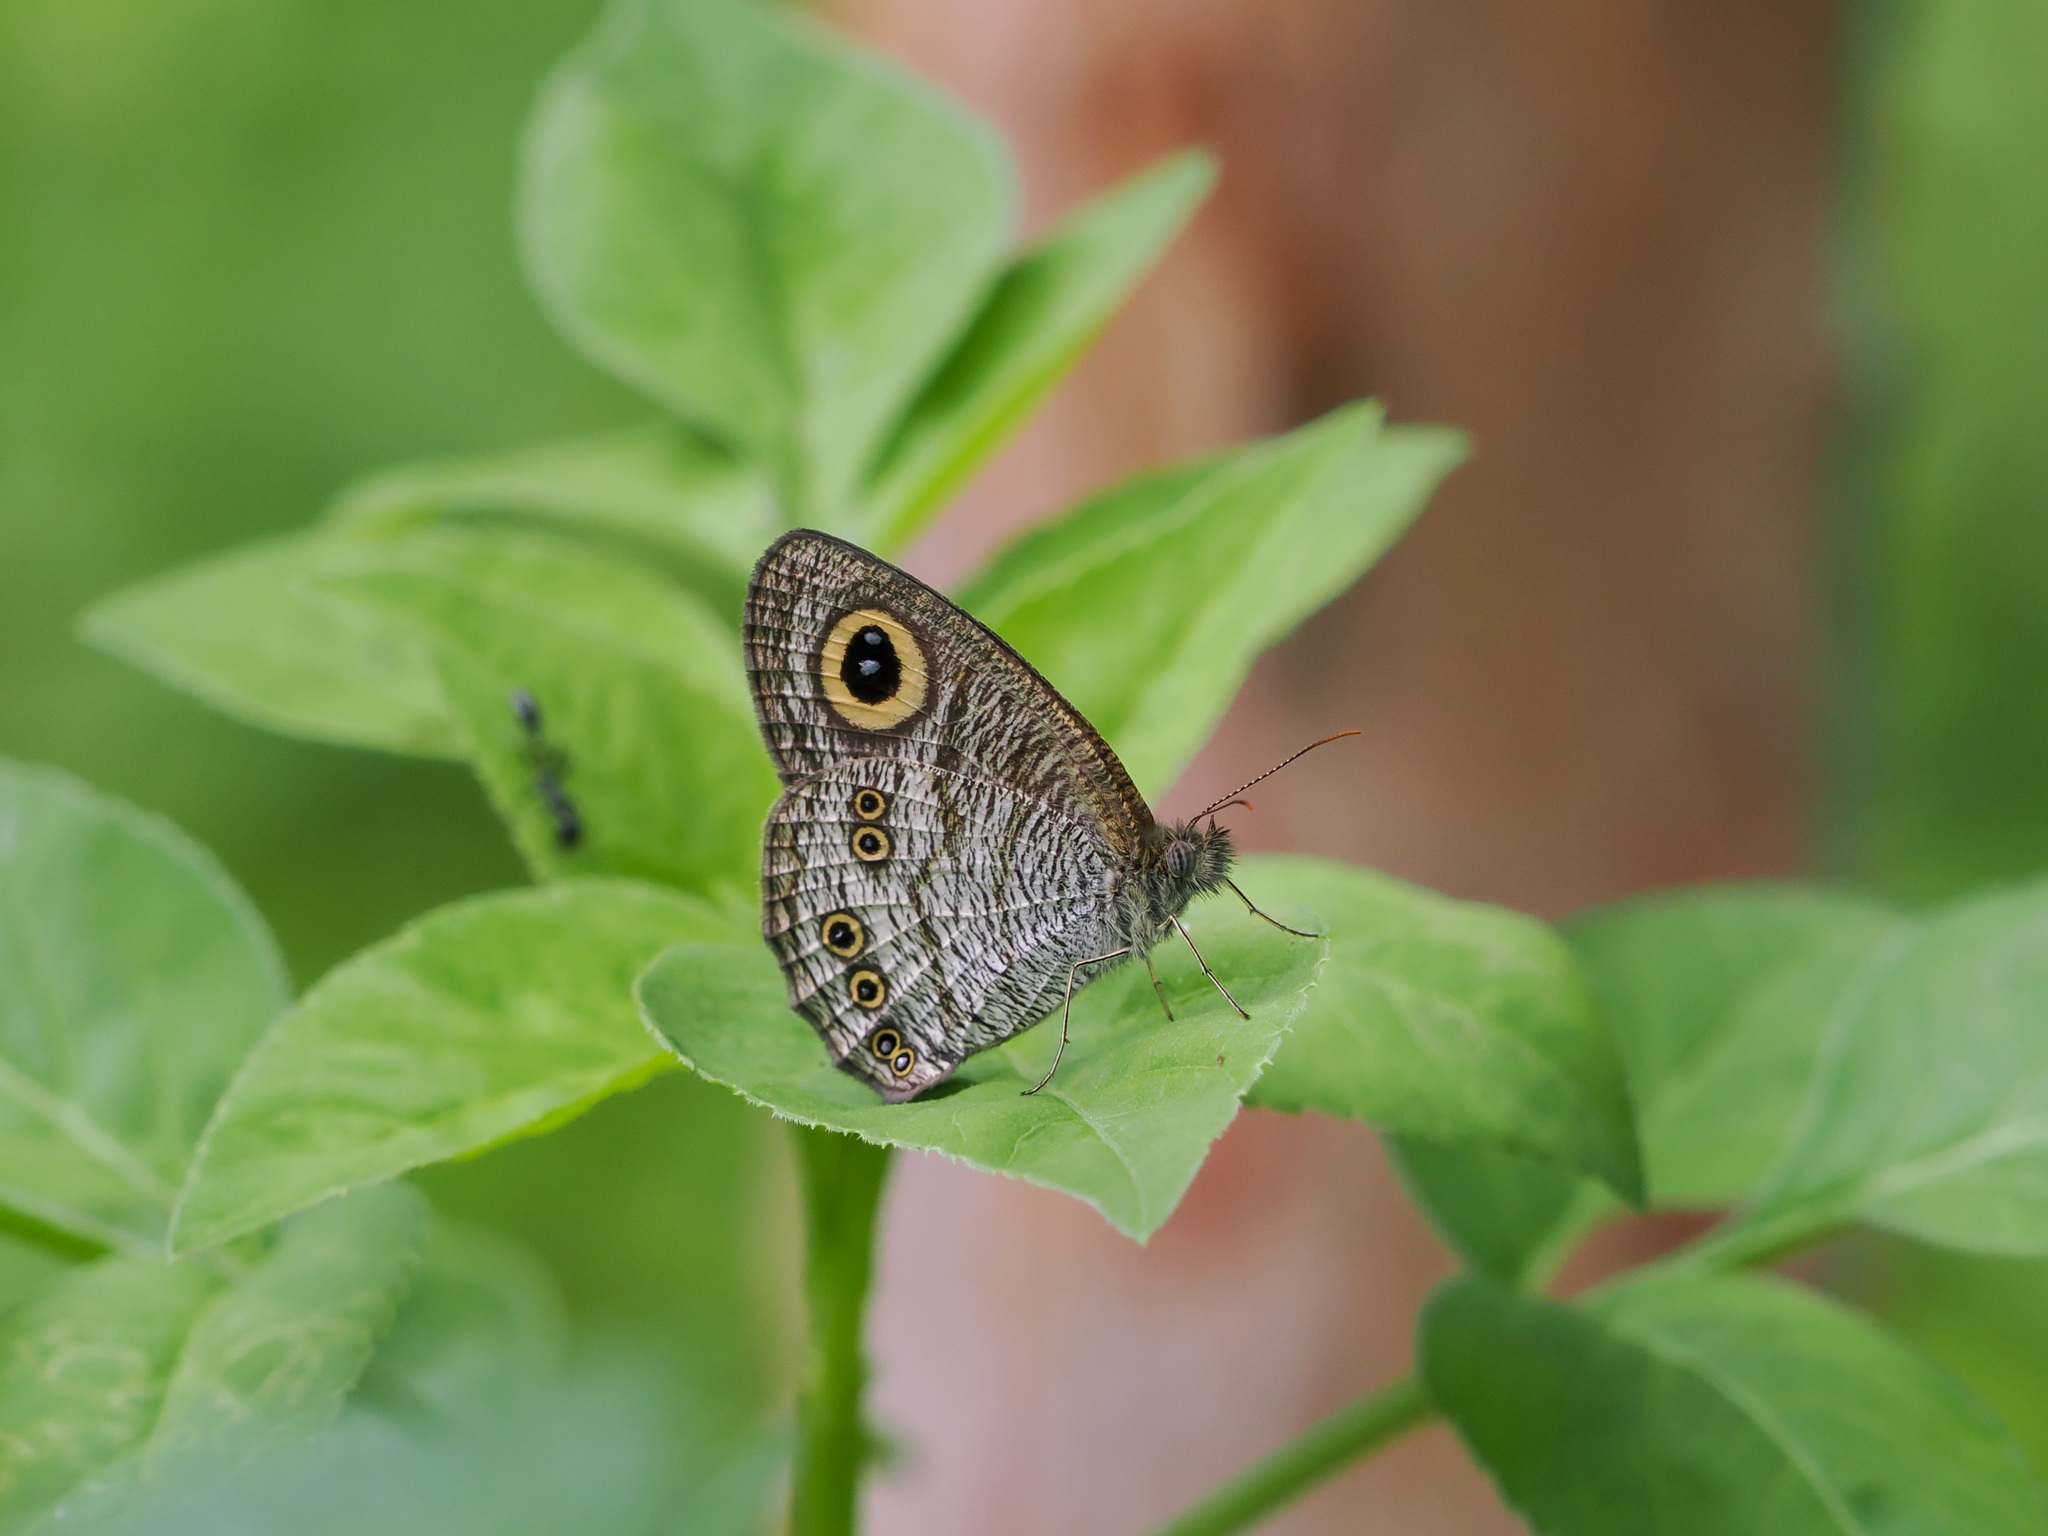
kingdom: Animalia
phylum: Arthropoda
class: Insecta
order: Lepidoptera
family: Nymphalidae
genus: Ypthima
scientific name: Ypthima baldus
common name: Common five-ring
